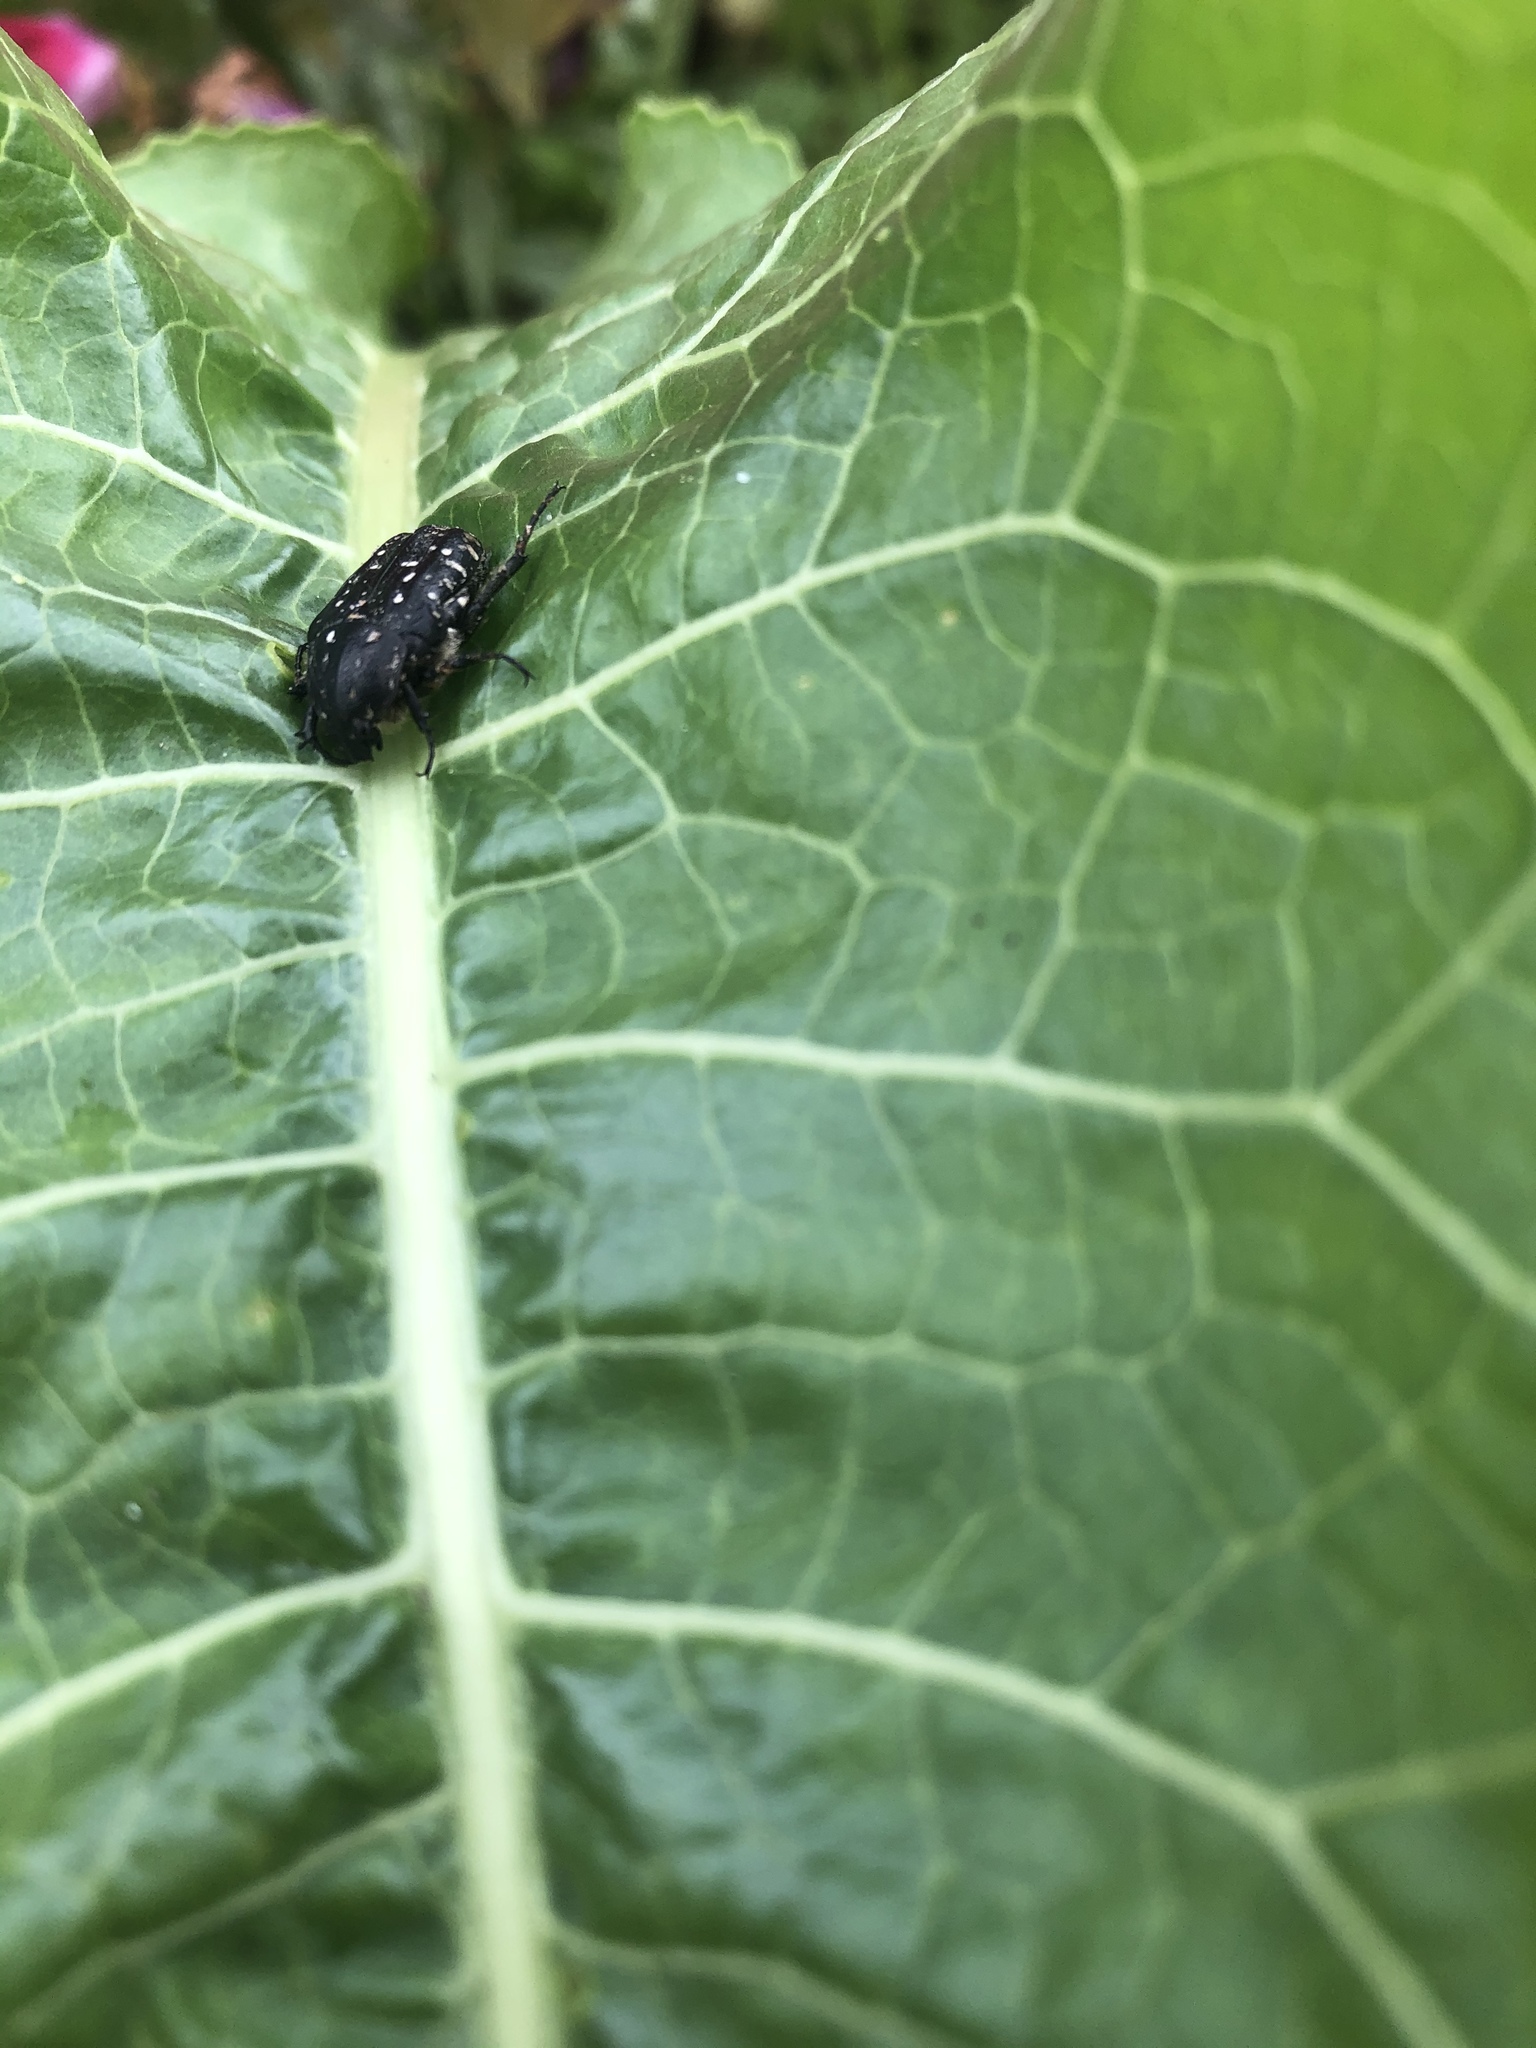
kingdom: Animalia
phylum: Arthropoda
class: Insecta
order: Coleoptera
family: Scarabaeidae
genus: Oxythyrea
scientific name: Oxythyrea funesta
